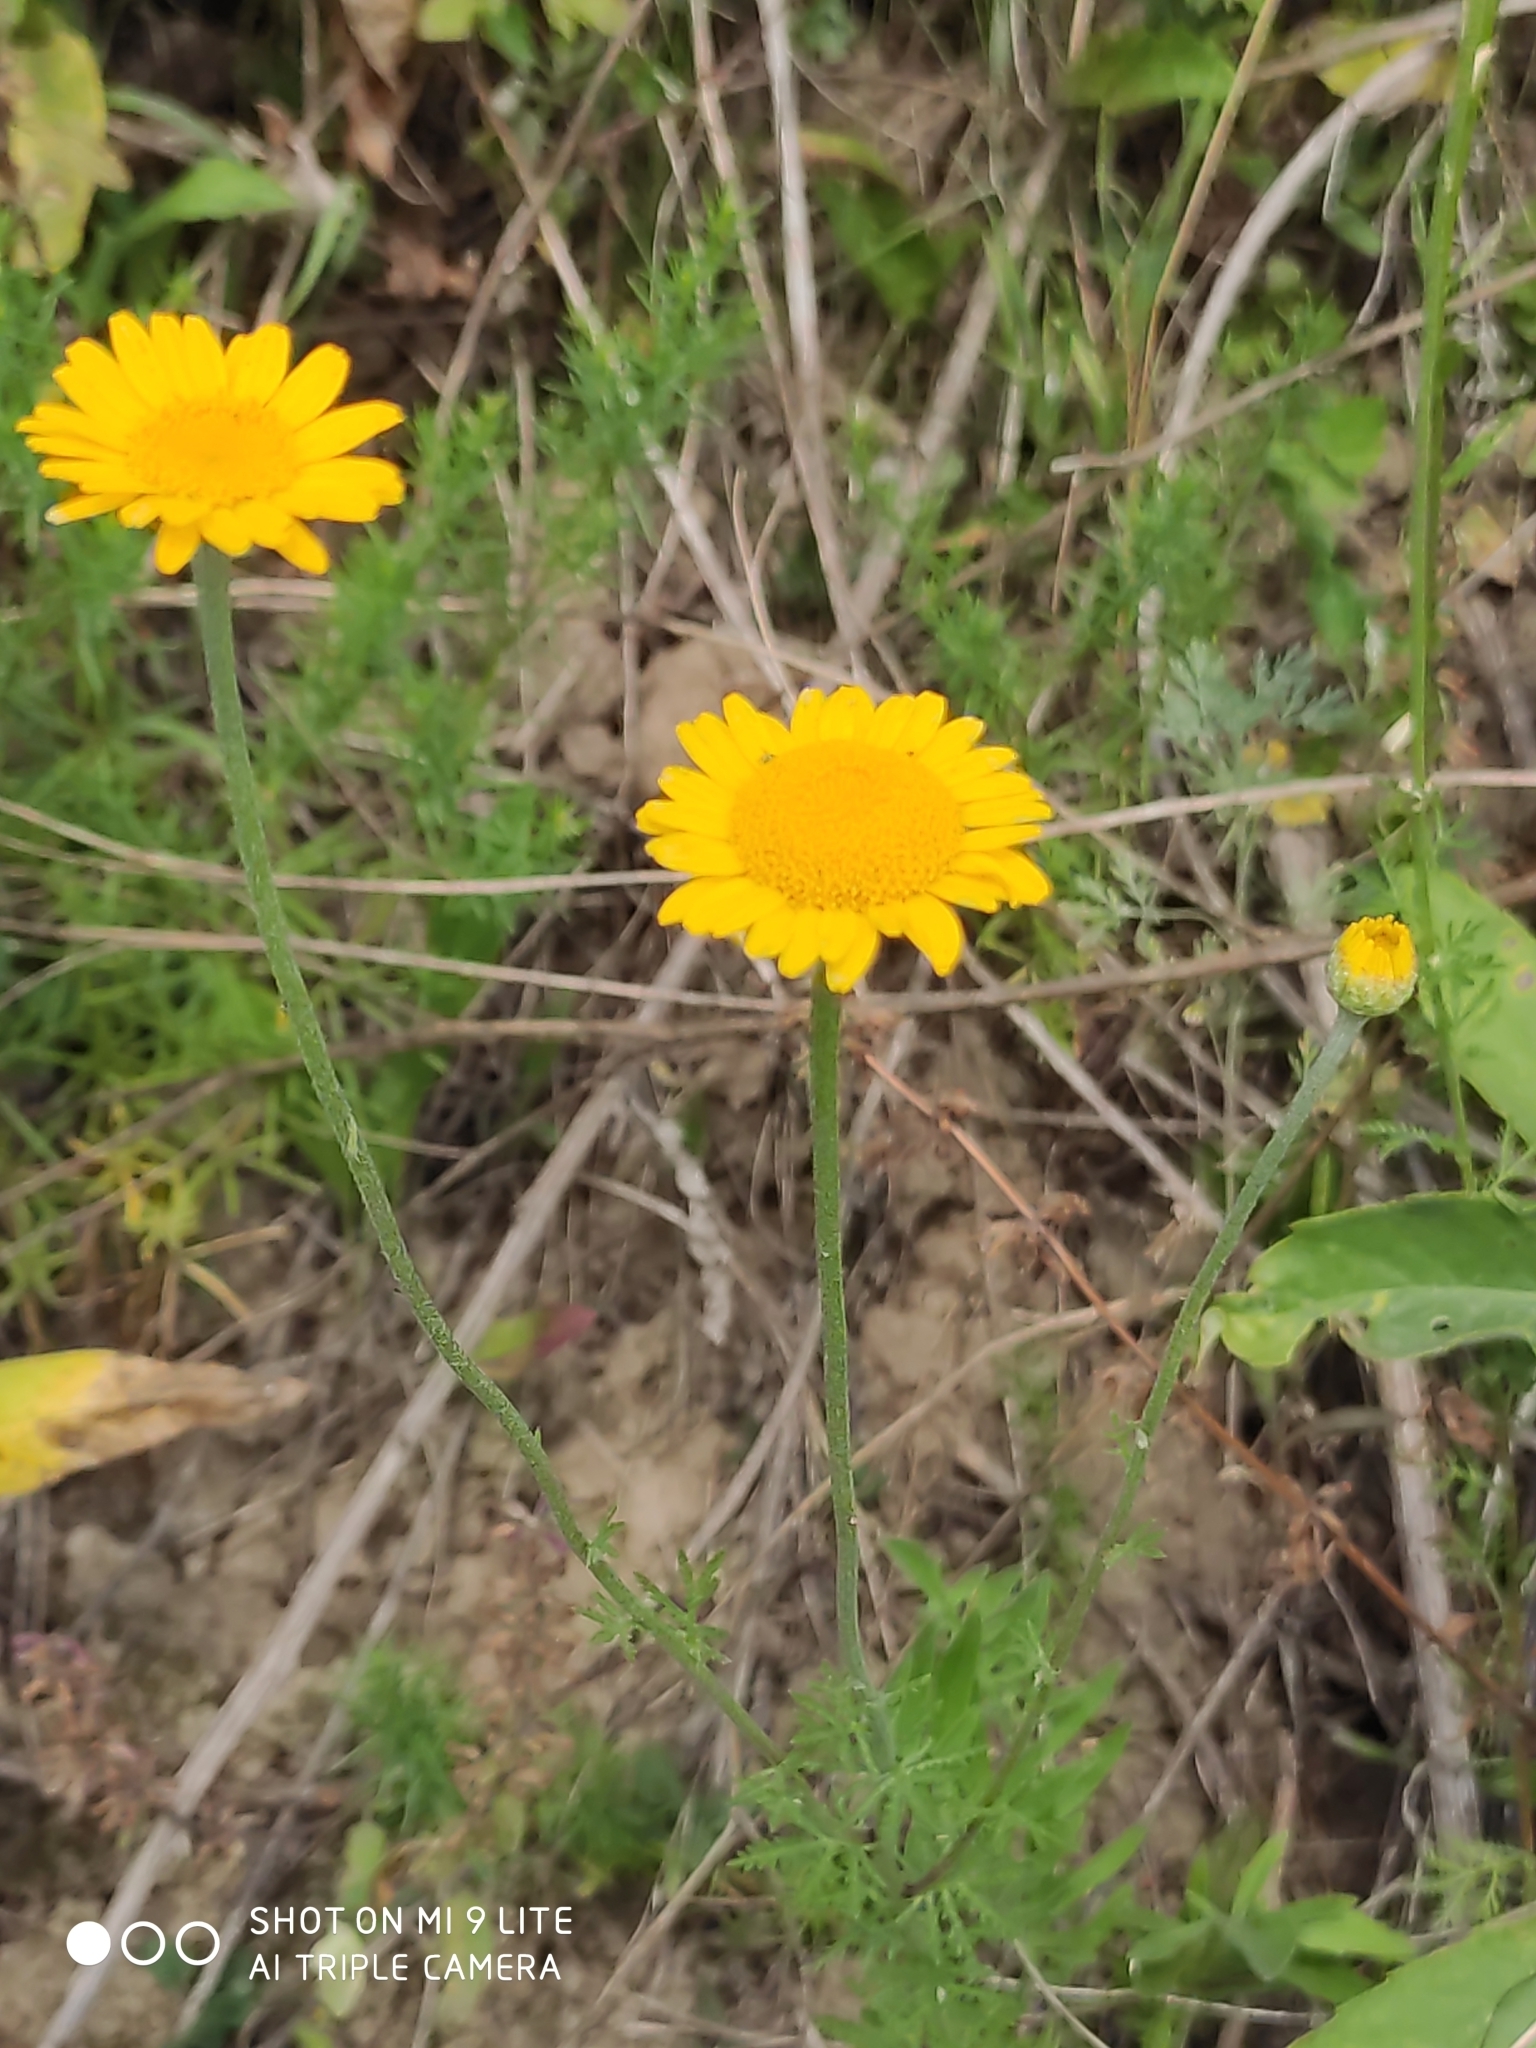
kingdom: Plantae
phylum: Tracheophyta
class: Magnoliopsida
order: Asterales
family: Asteraceae
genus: Cota
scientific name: Cota tinctoria
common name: Golden chamomile
